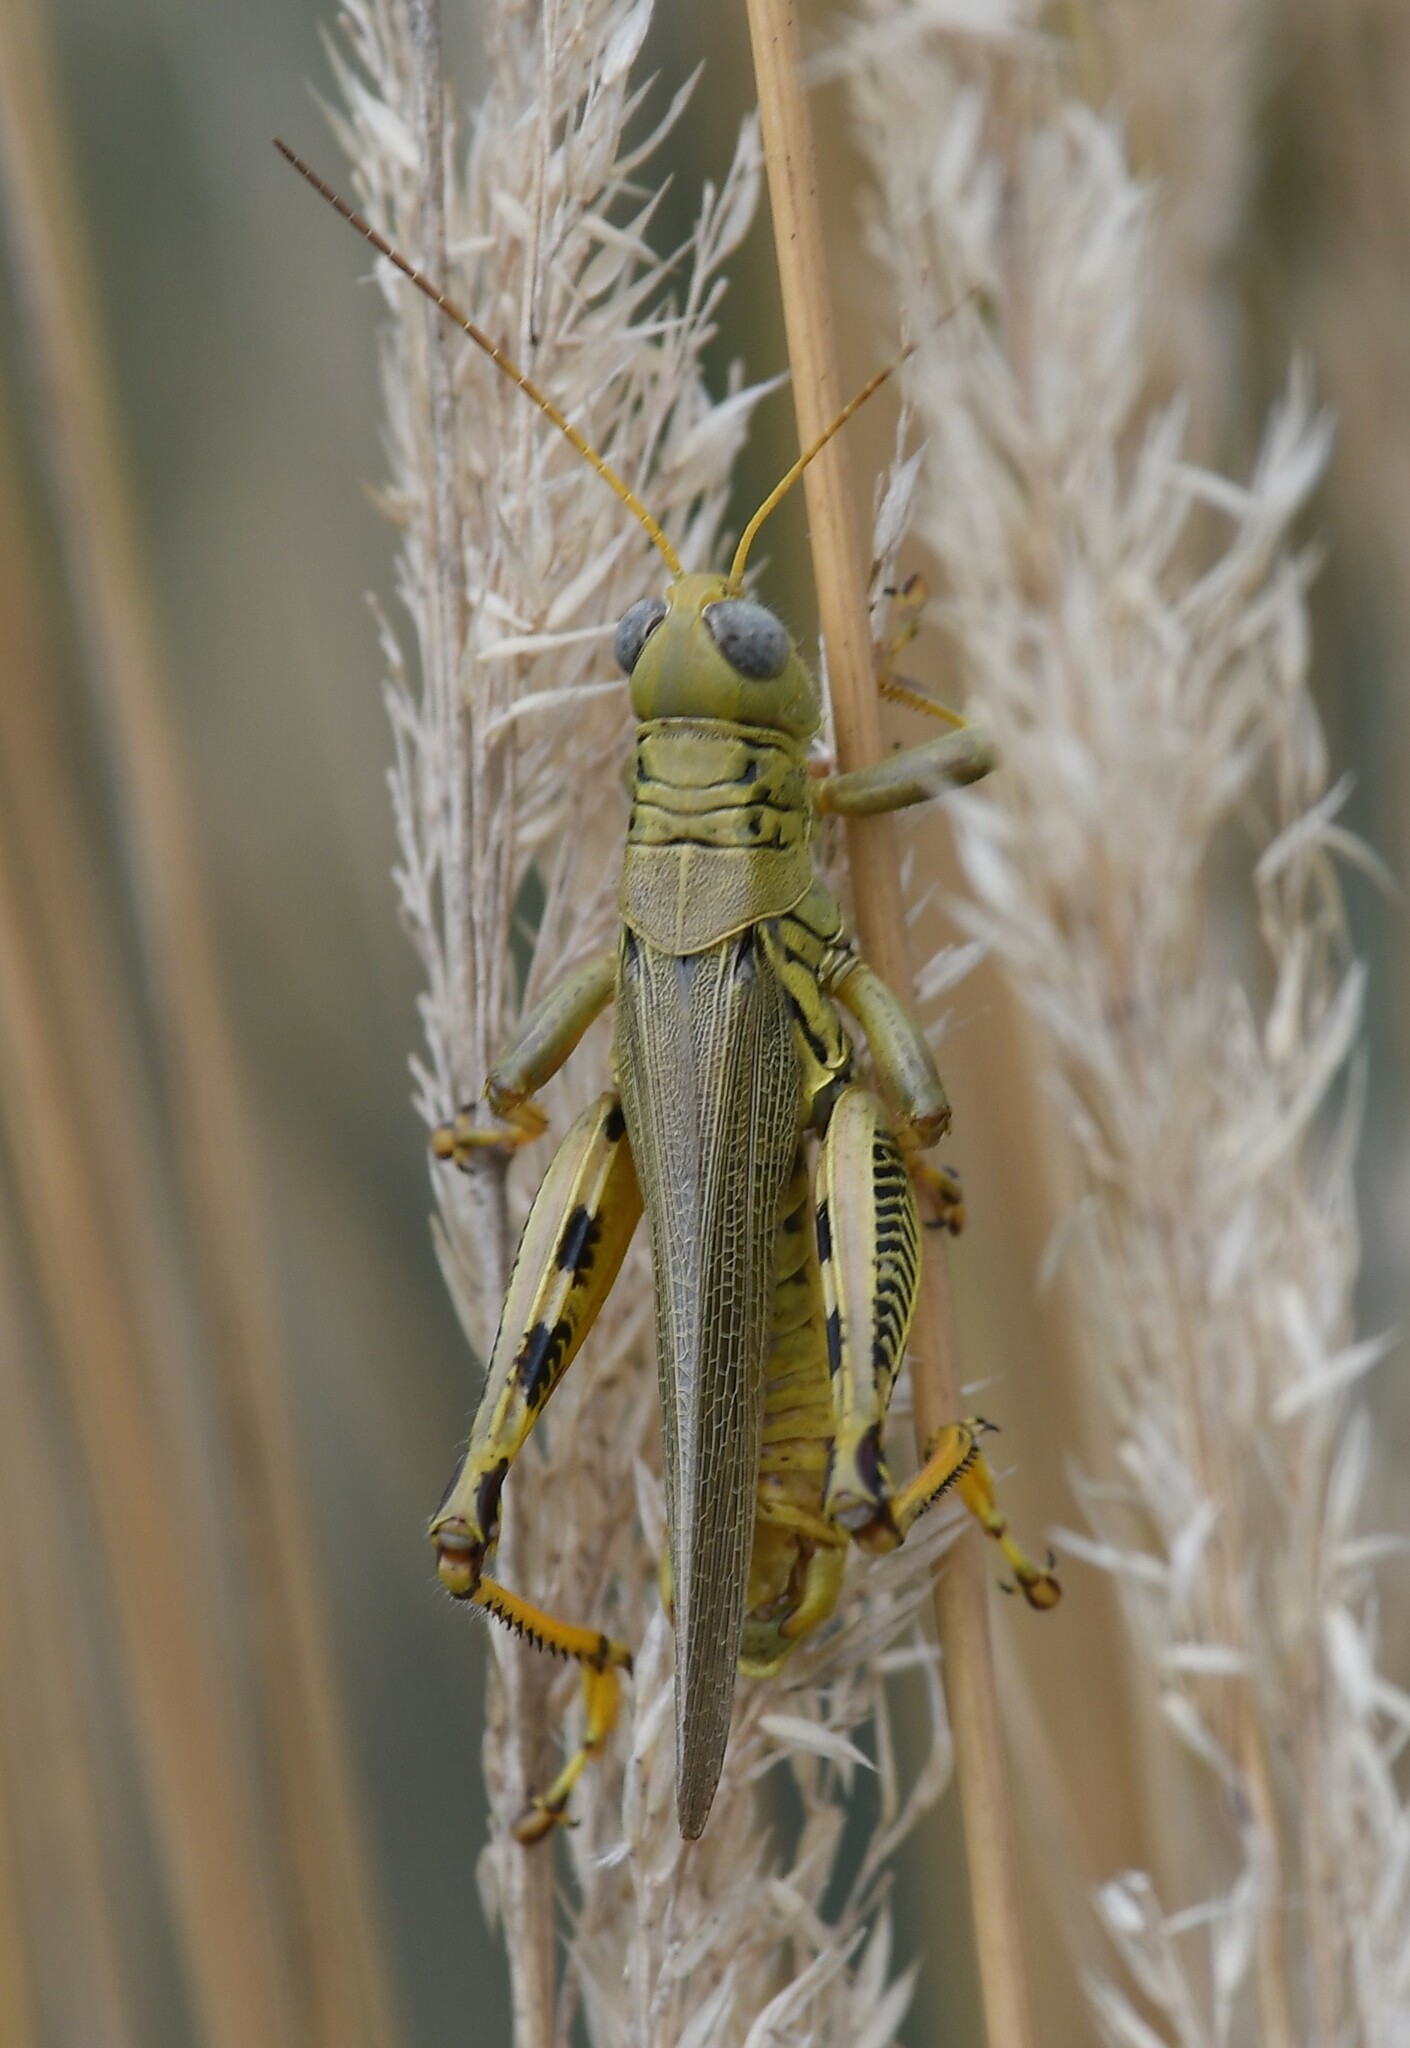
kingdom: Animalia
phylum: Arthropoda
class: Insecta
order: Orthoptera
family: Acrididae
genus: Melanoplus
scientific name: Melanoplus differentialis
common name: Differential grasshopper
